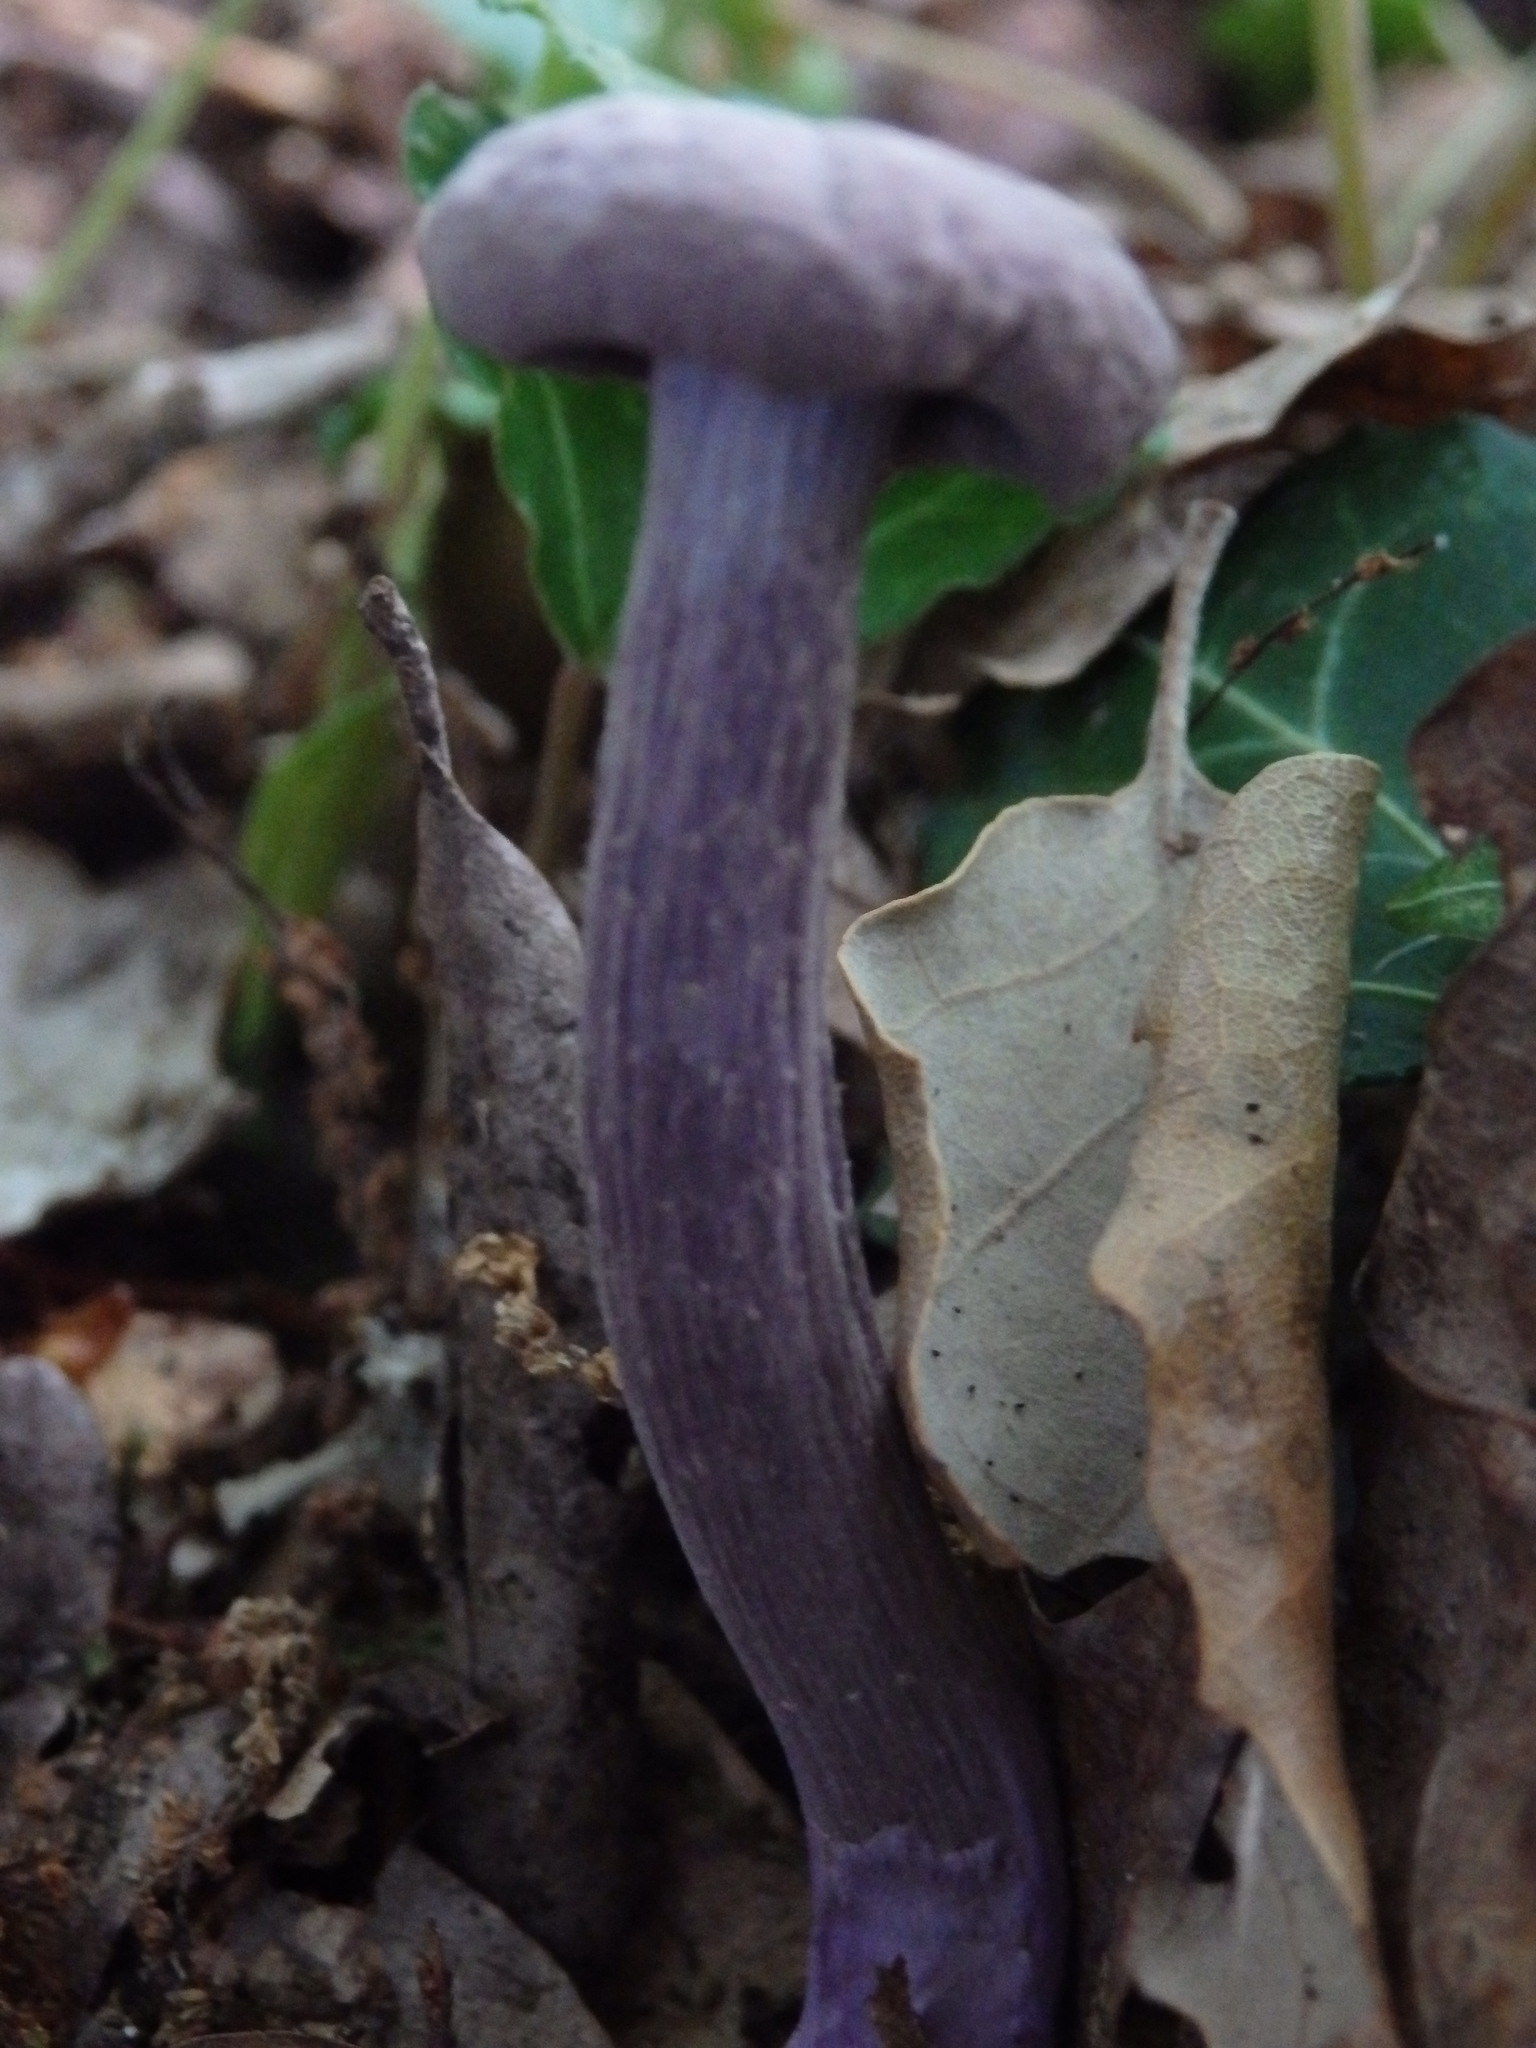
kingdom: Fungi
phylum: Basidiomycota
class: Agaricomycetes
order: Agaricales
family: Hydnangiaceae
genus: Laccaria
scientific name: Laccaria amethystina
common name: Amethyst deceiver
